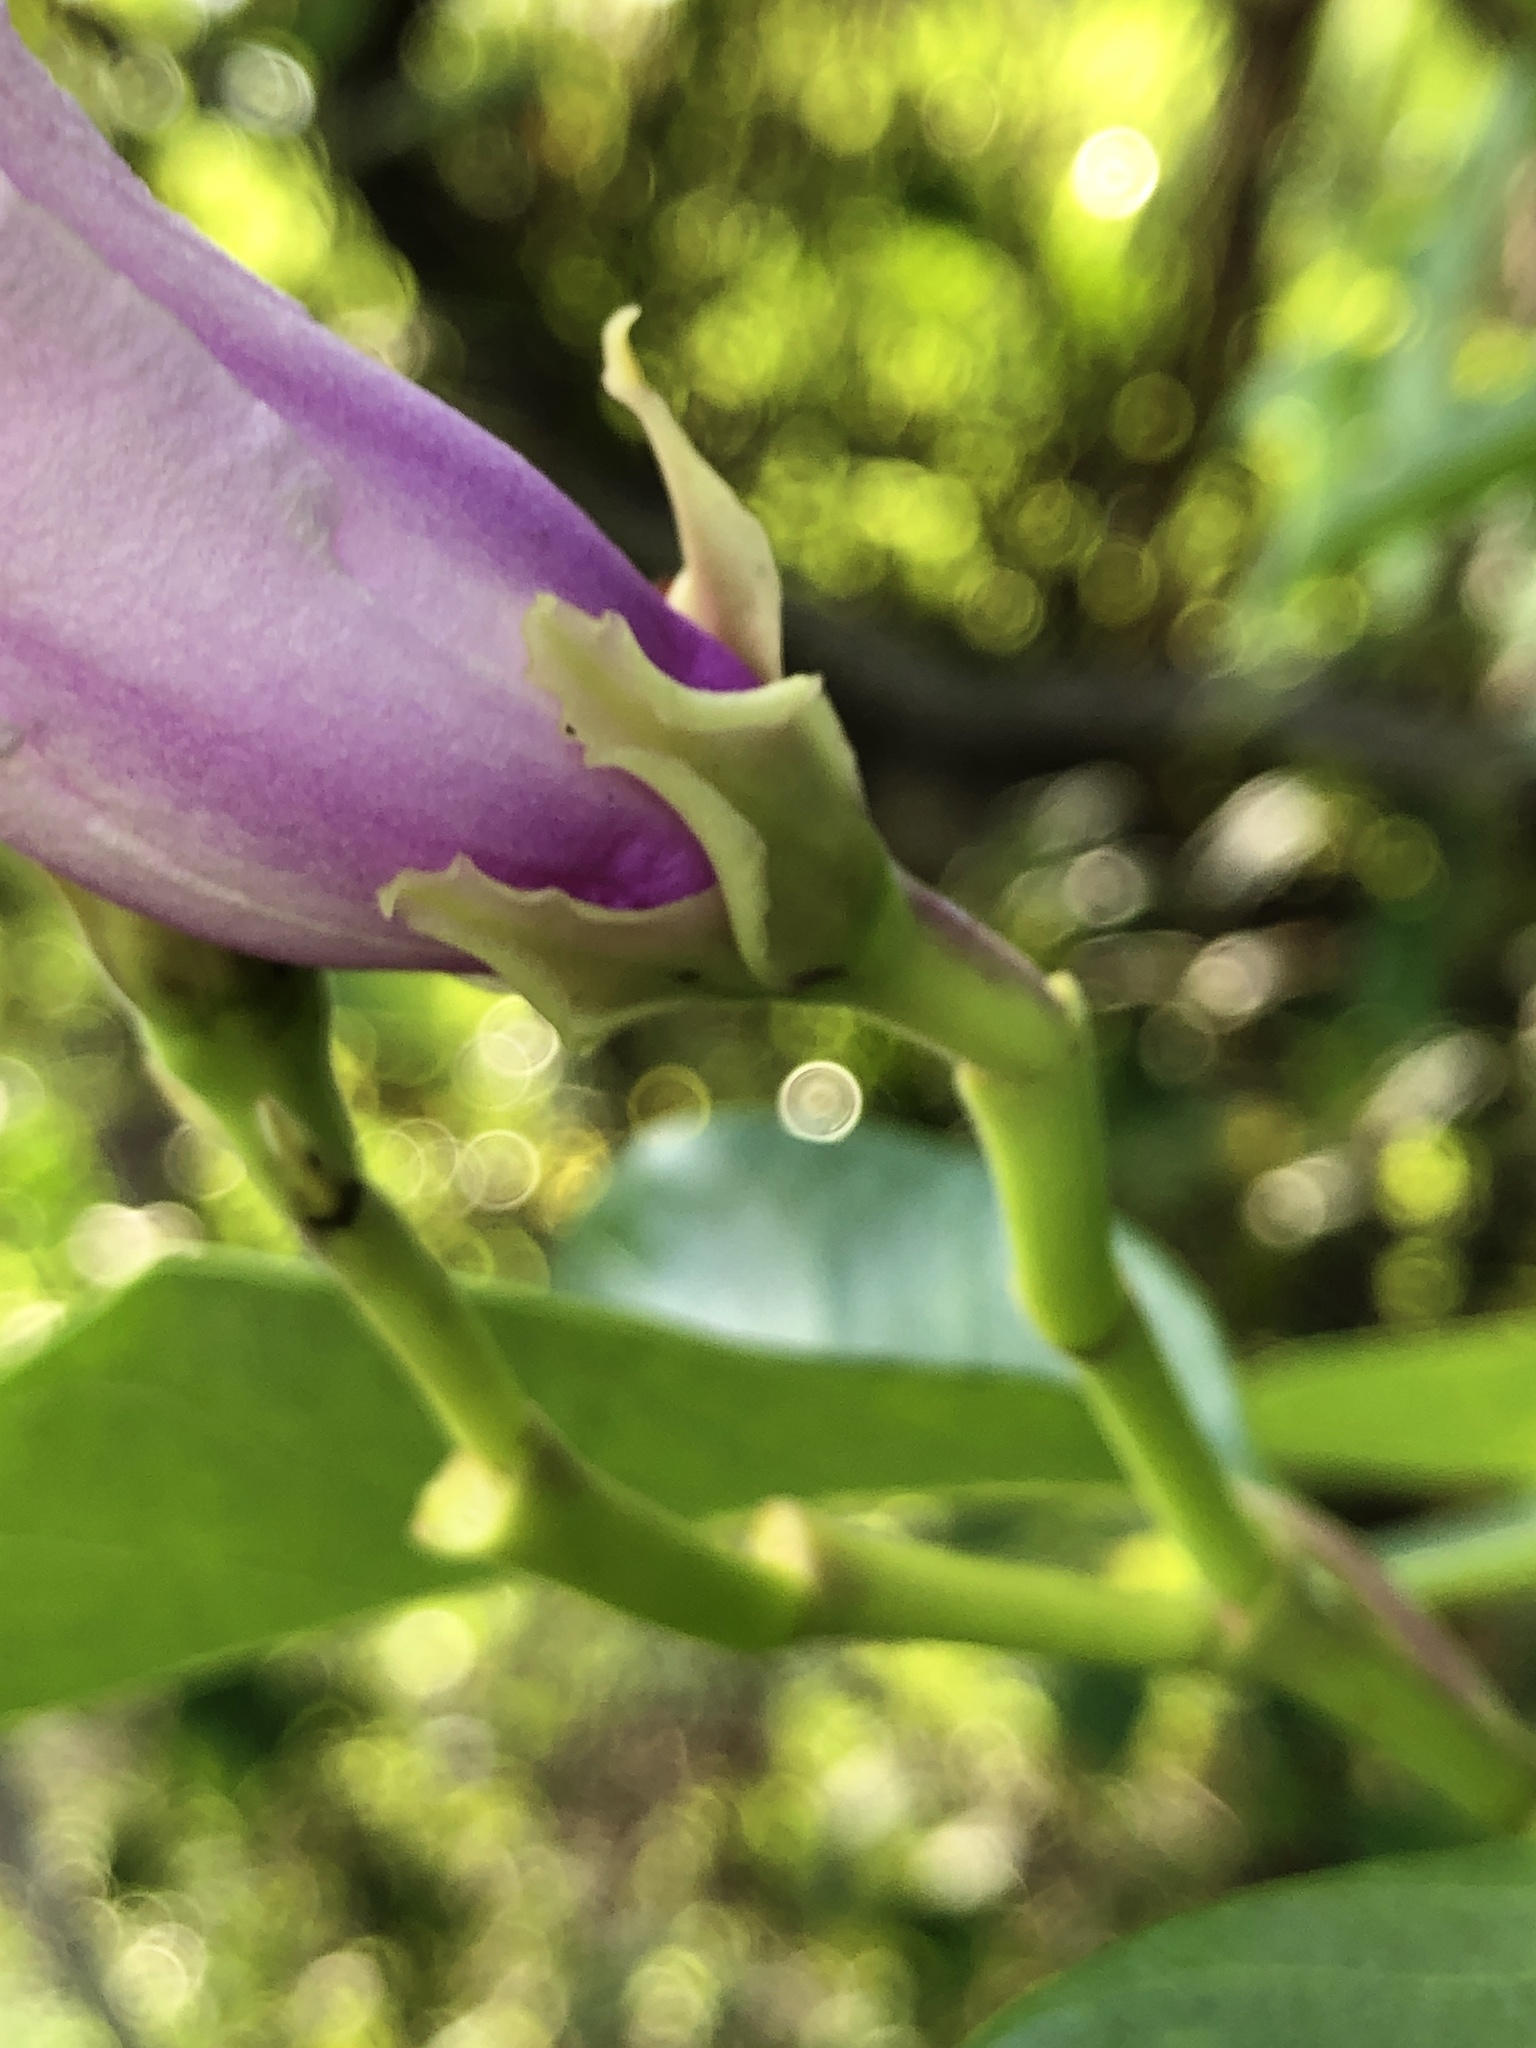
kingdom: Plantae
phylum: Tracheophyta
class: Magnoliopsida
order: Gentianales
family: Apocynaceae
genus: Cryptostegia
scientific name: Cryptostegia grandiflora
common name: Palay rubbervine
